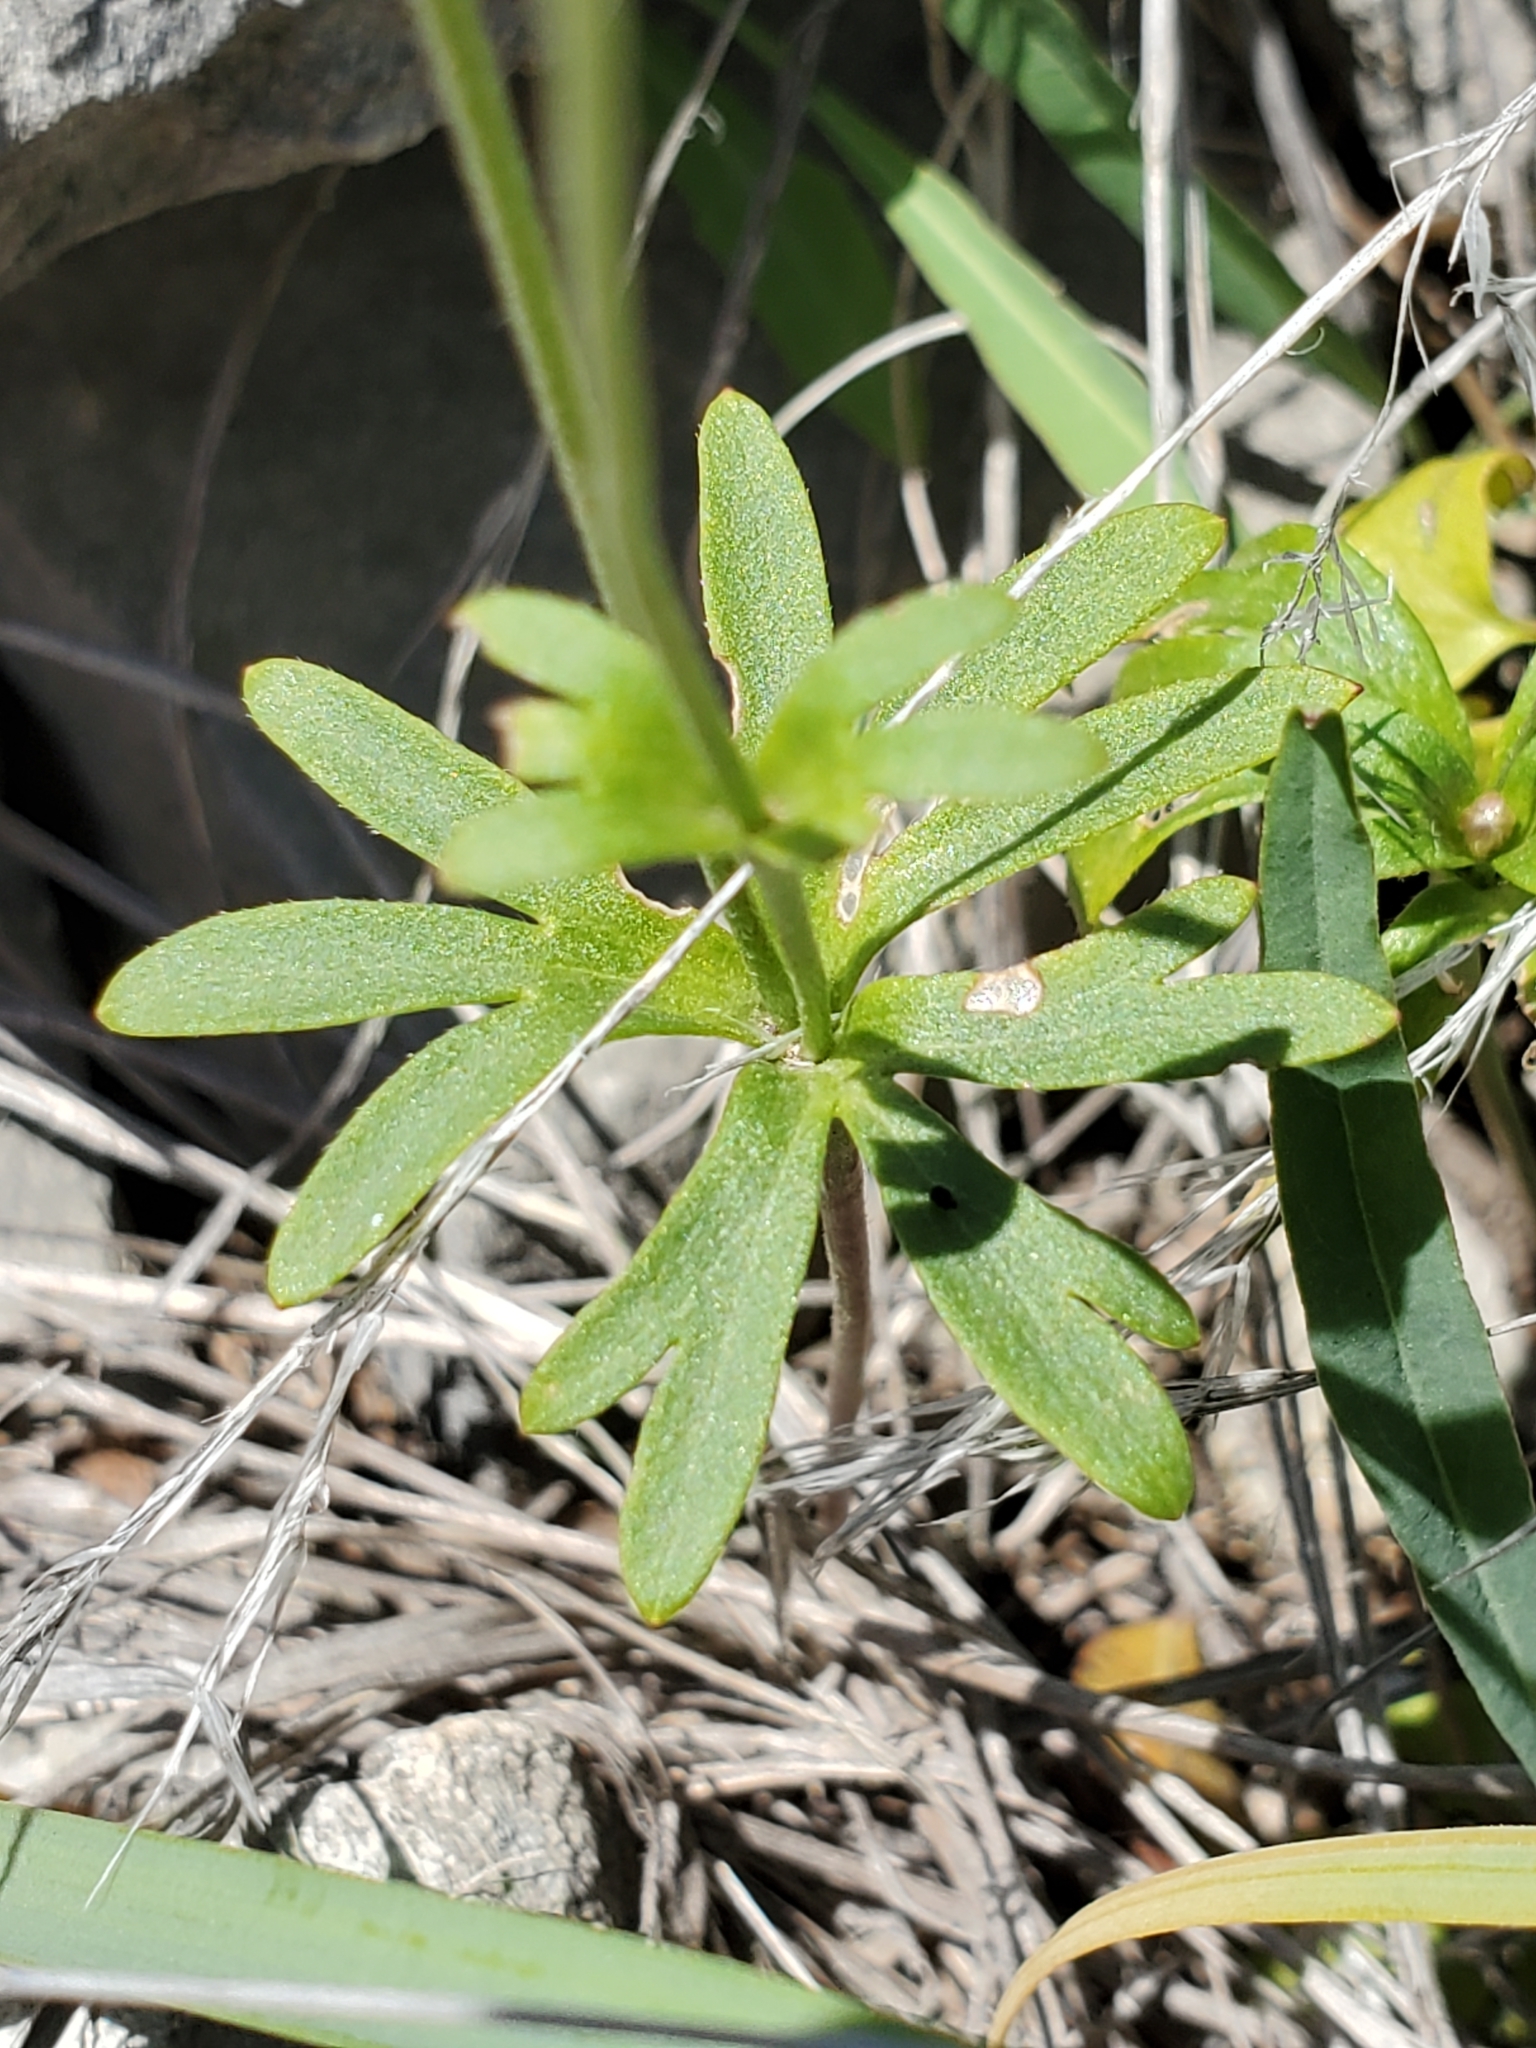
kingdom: Plantae
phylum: Tracheophyta
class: Magnoliopsida
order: Ranunculales
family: Ranunculaceae
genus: Anemone
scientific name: Anemone edwardsiana
